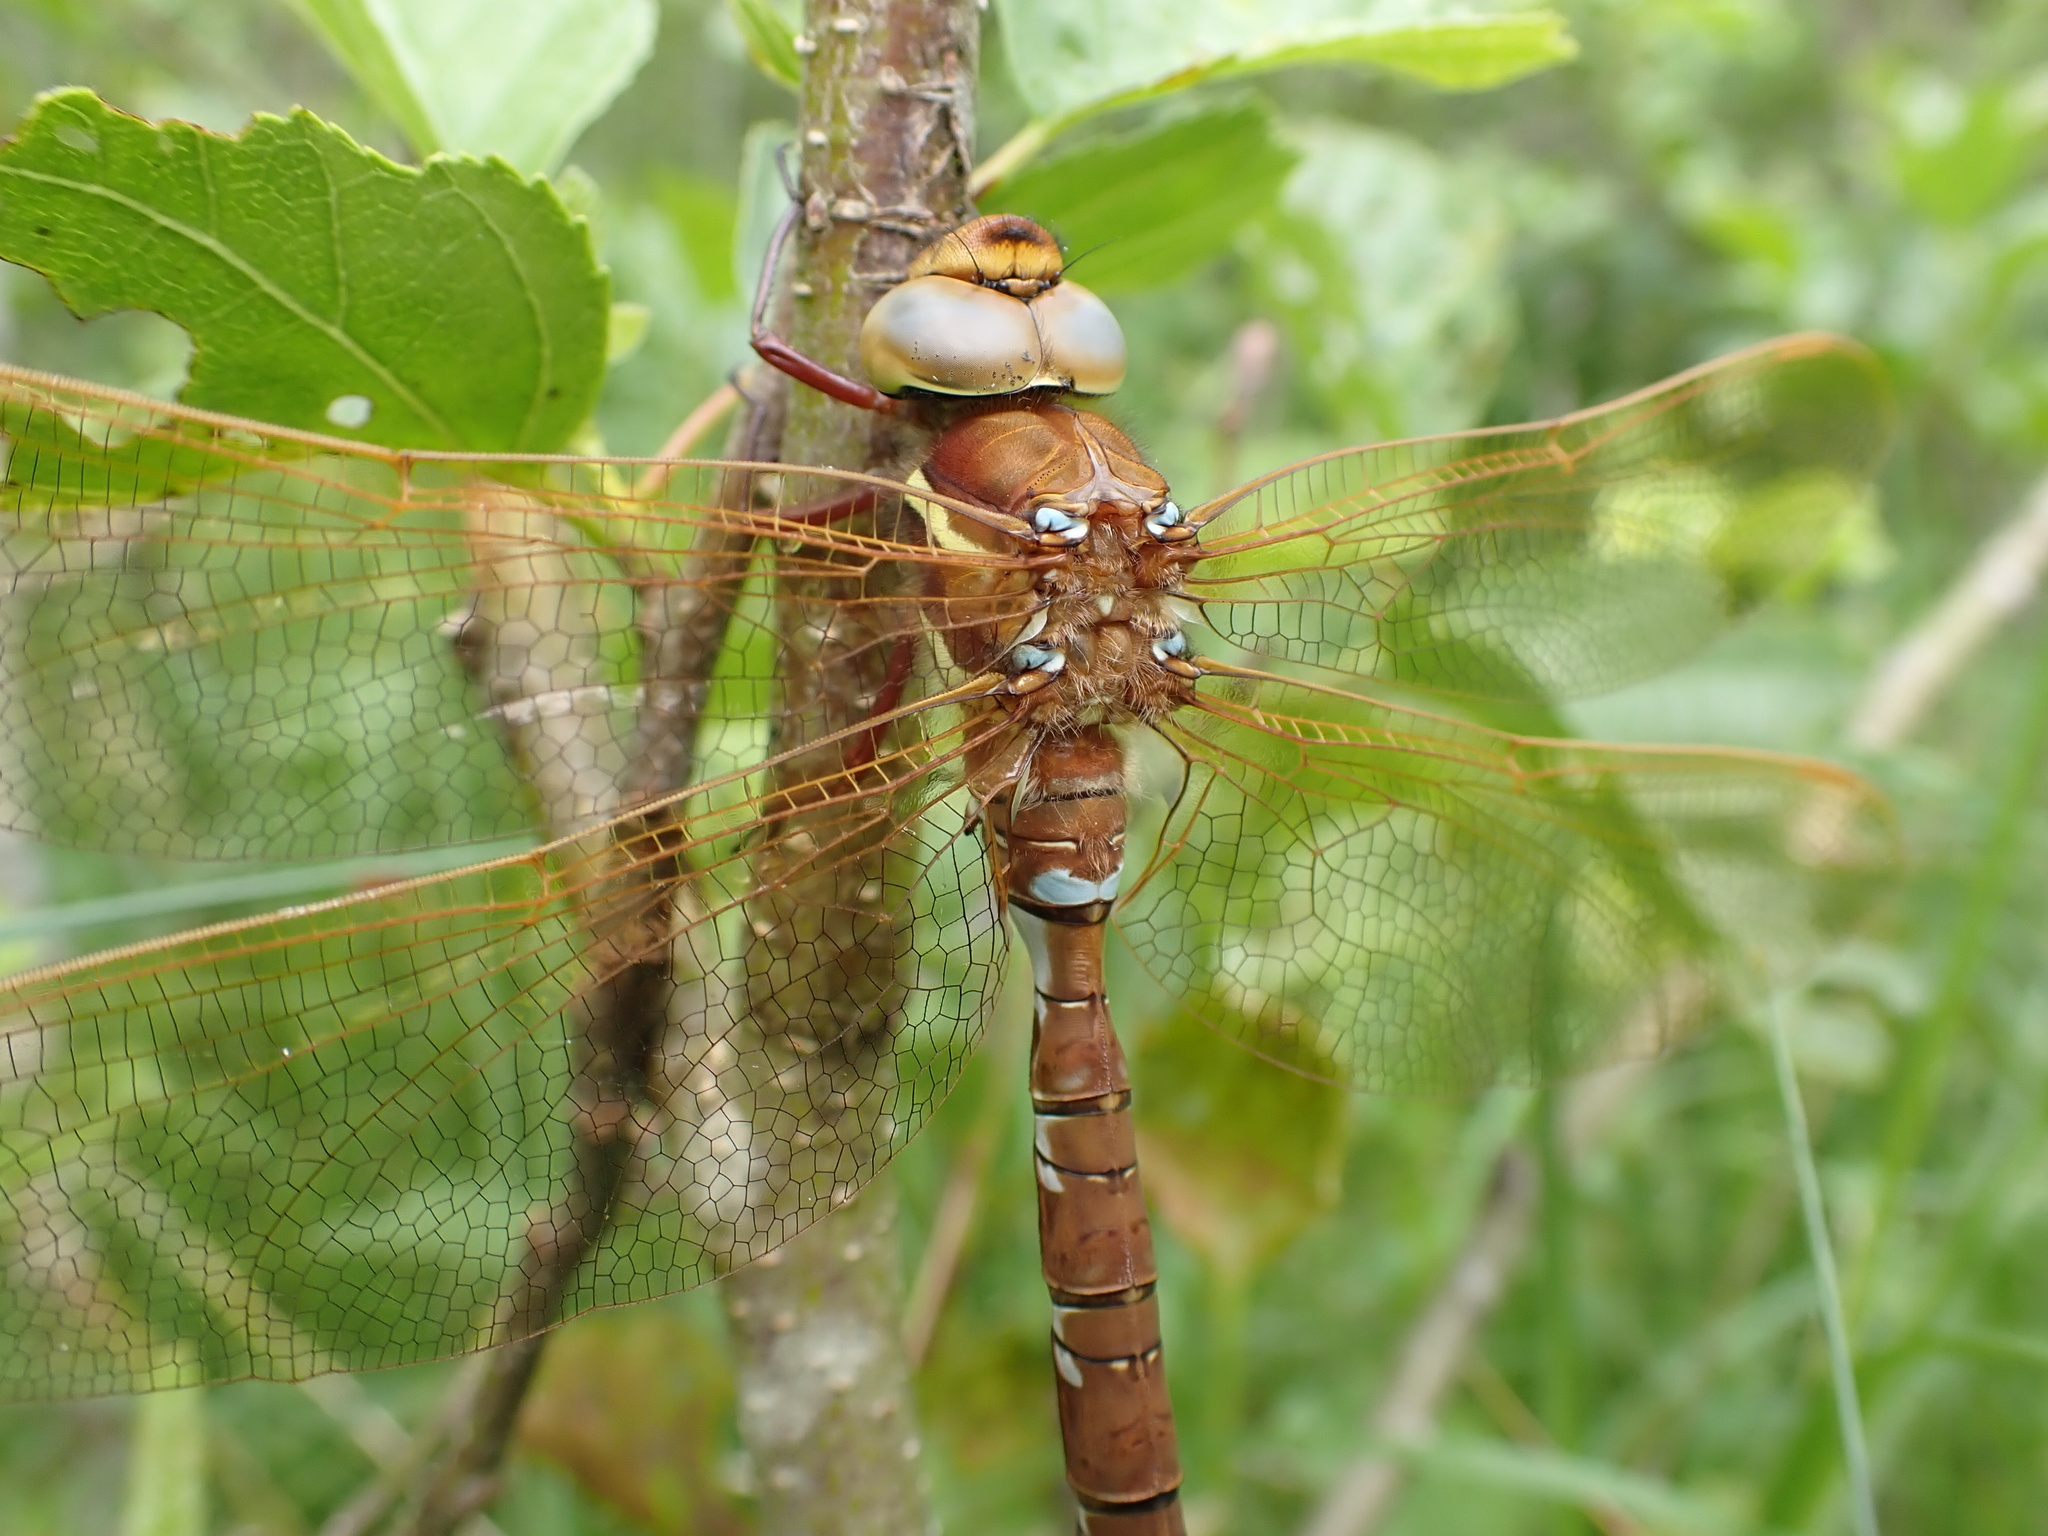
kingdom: Animalia
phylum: Arthropoda
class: Insecta
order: Odonata
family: Aeshnidae
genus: Aeshna
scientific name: Aeshna grandis
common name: Brown hawker
